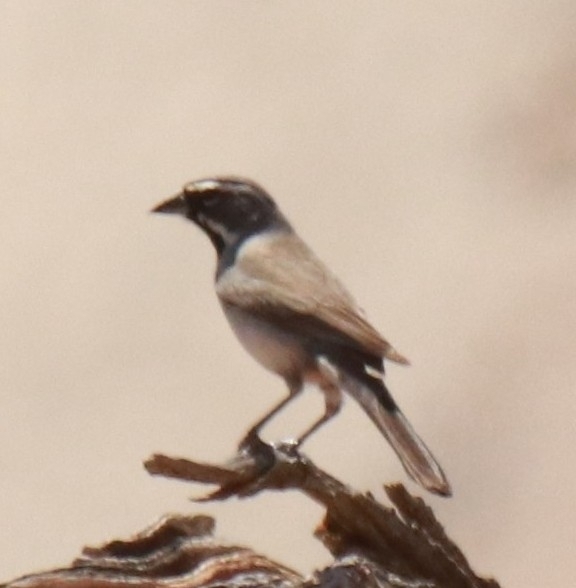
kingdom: Animalia
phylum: Chordata
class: Aves
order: Passeriformes
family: Passerellidae
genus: Amphispiza
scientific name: Amphispiza bilineata
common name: Black-throated sparrow
